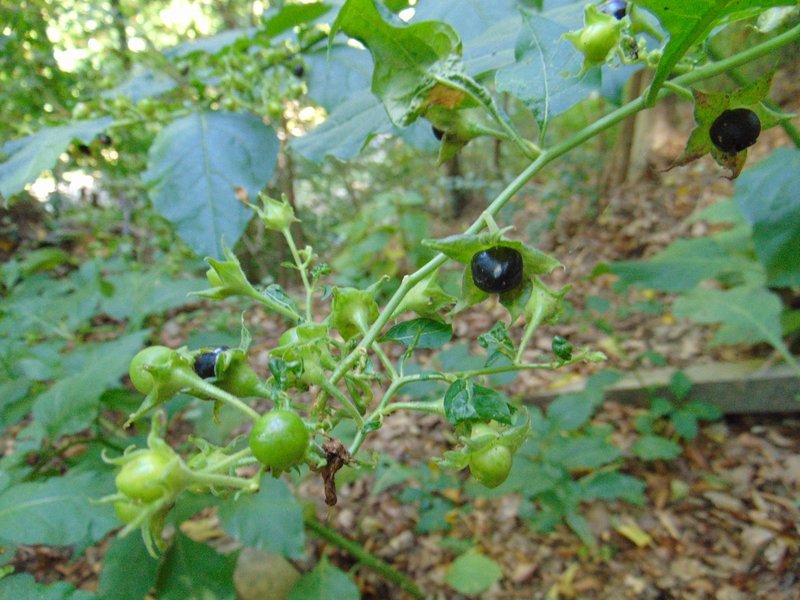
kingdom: Plantae
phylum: Tracheophyta
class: Magnoliopsida
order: Solanales
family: Solanaceae
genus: Atropa
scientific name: Atropa belladonna
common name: Deadly nightshade
